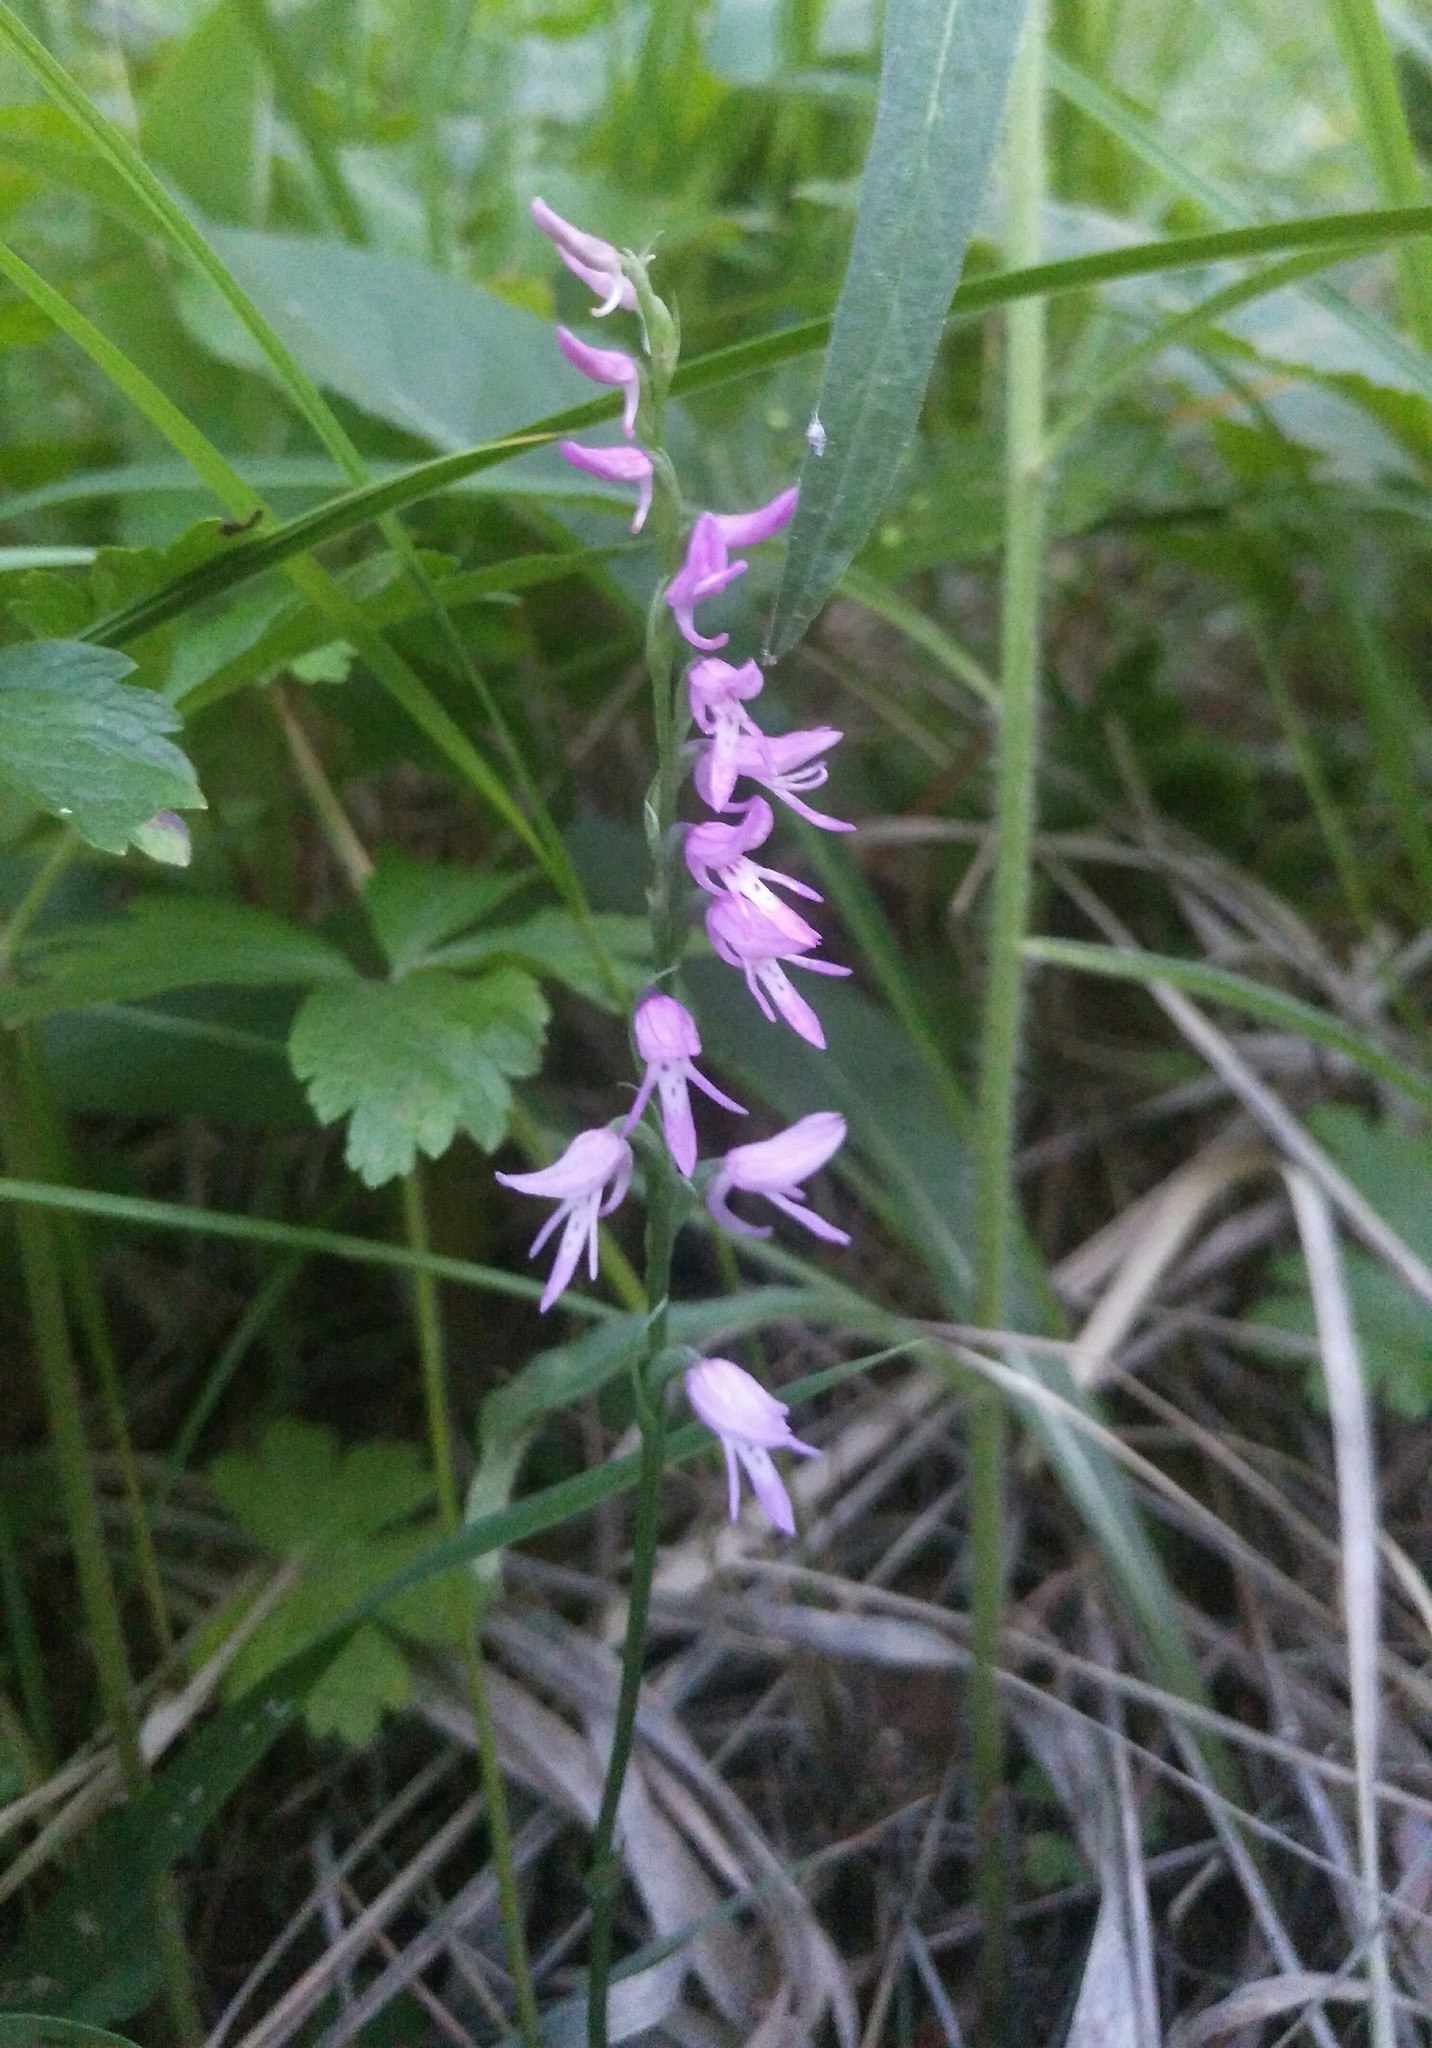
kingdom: Plantae
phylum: Tracheophyta
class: Liliopsida
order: Asparagales
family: Orchidaceae
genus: Hemipilia
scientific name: Hemipilia cucullata
